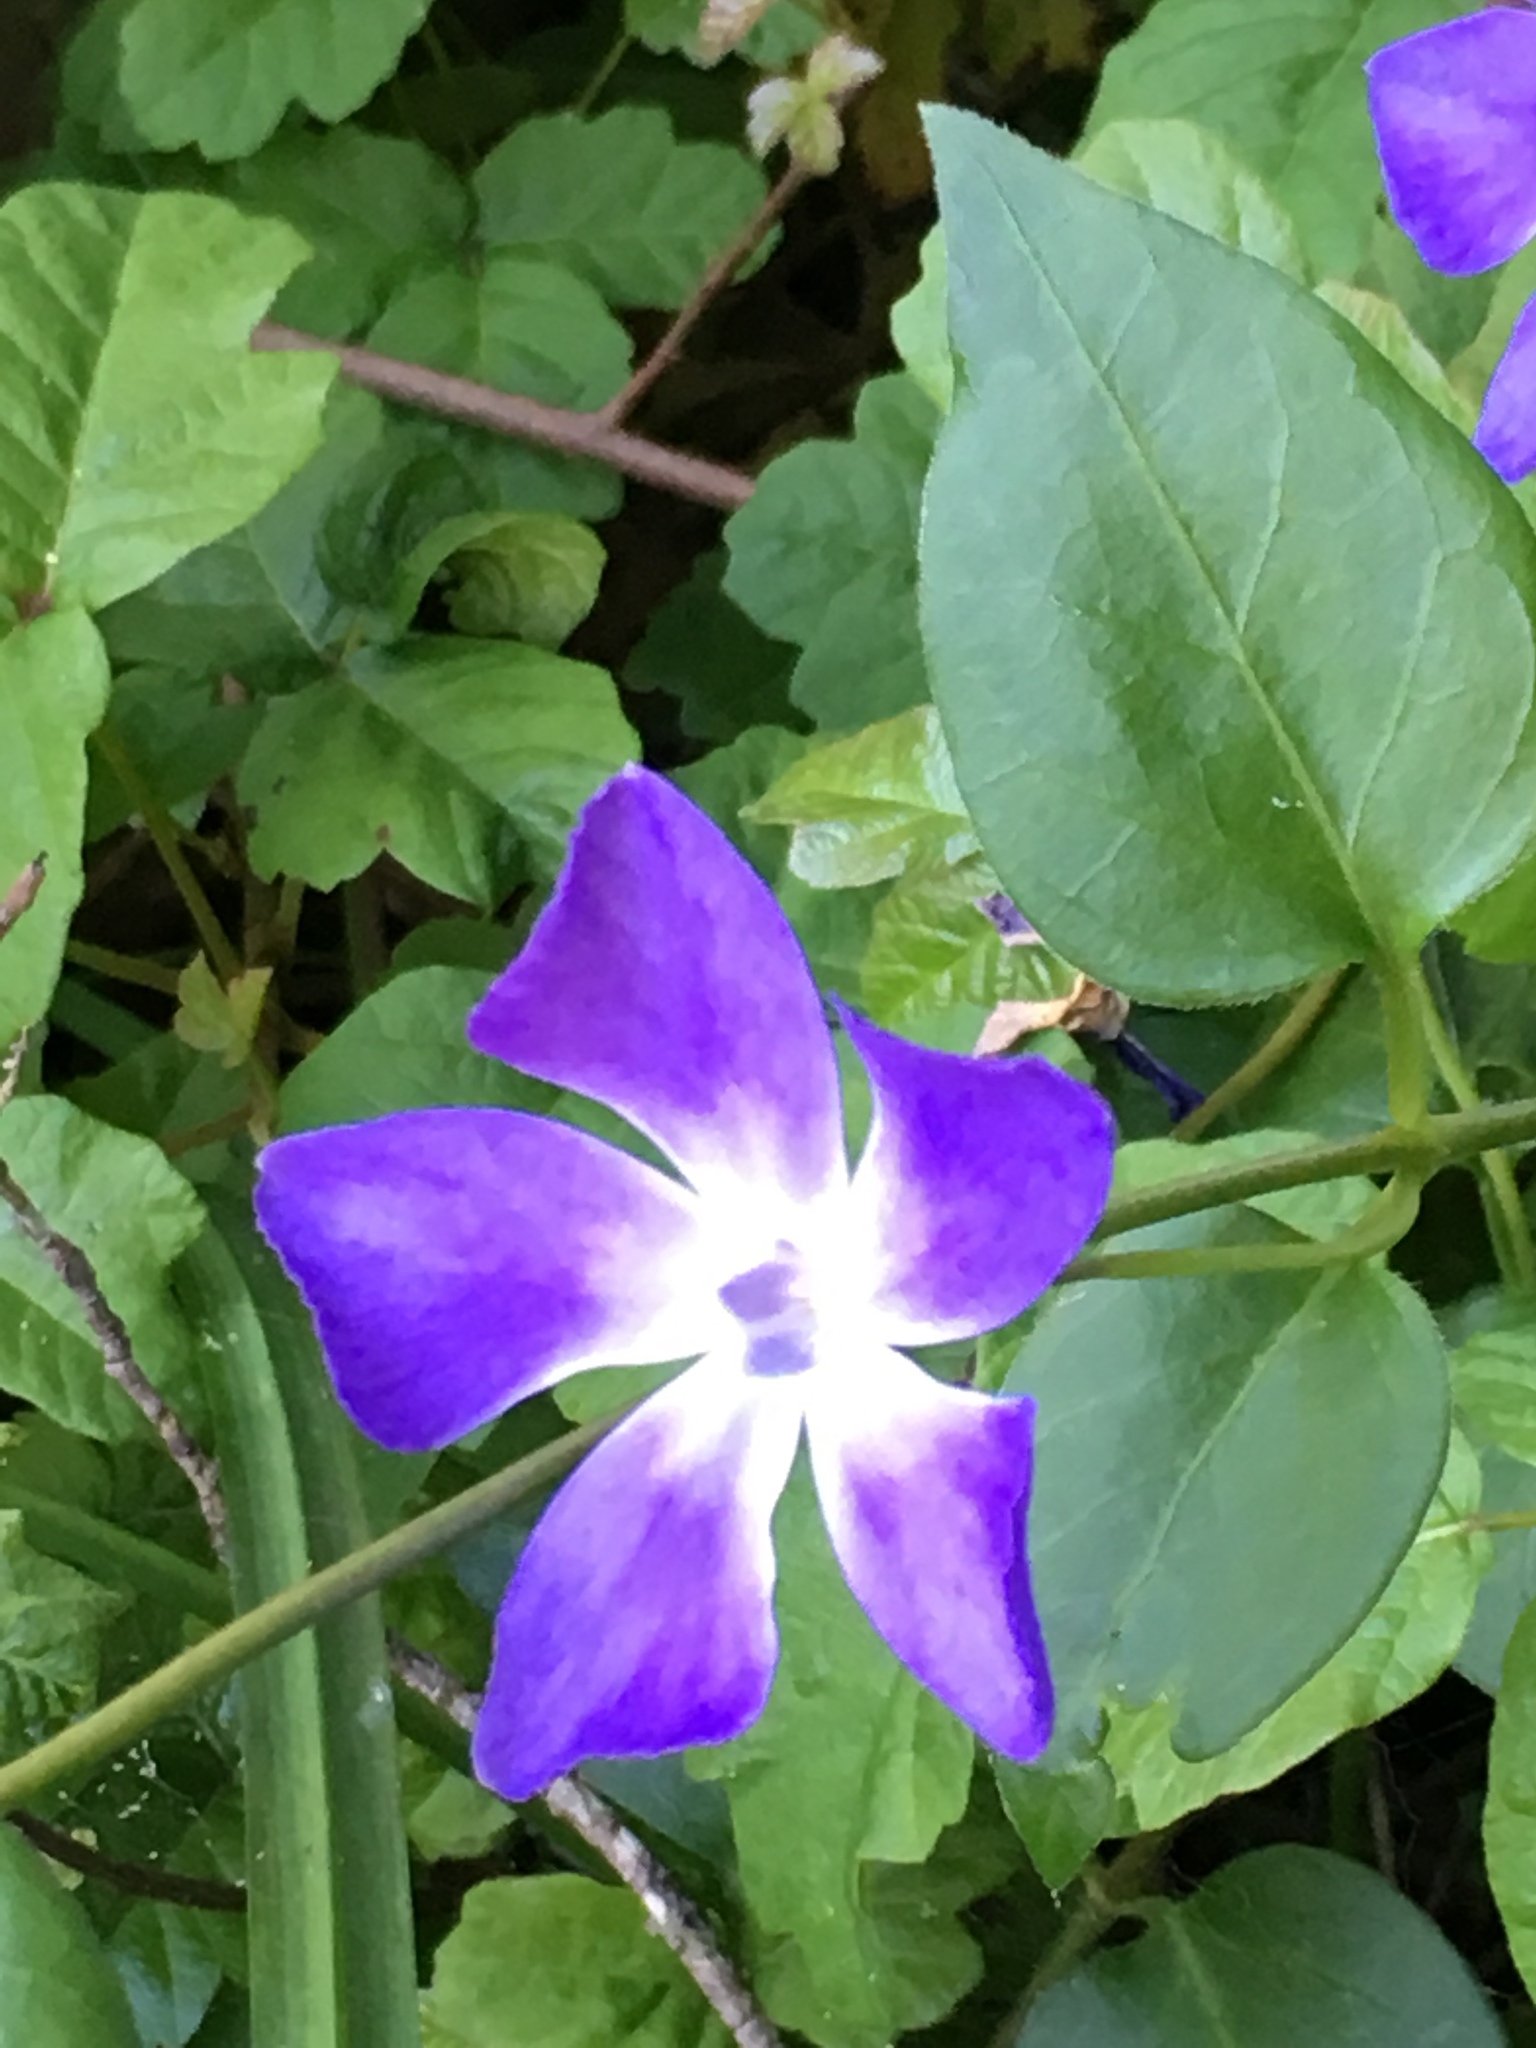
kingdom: Plantae
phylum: Tracheophyta
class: Magnoliopsida
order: Gentianales
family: Apocynaceae
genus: Vinca
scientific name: Vinca major
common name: Greater periwinkle
